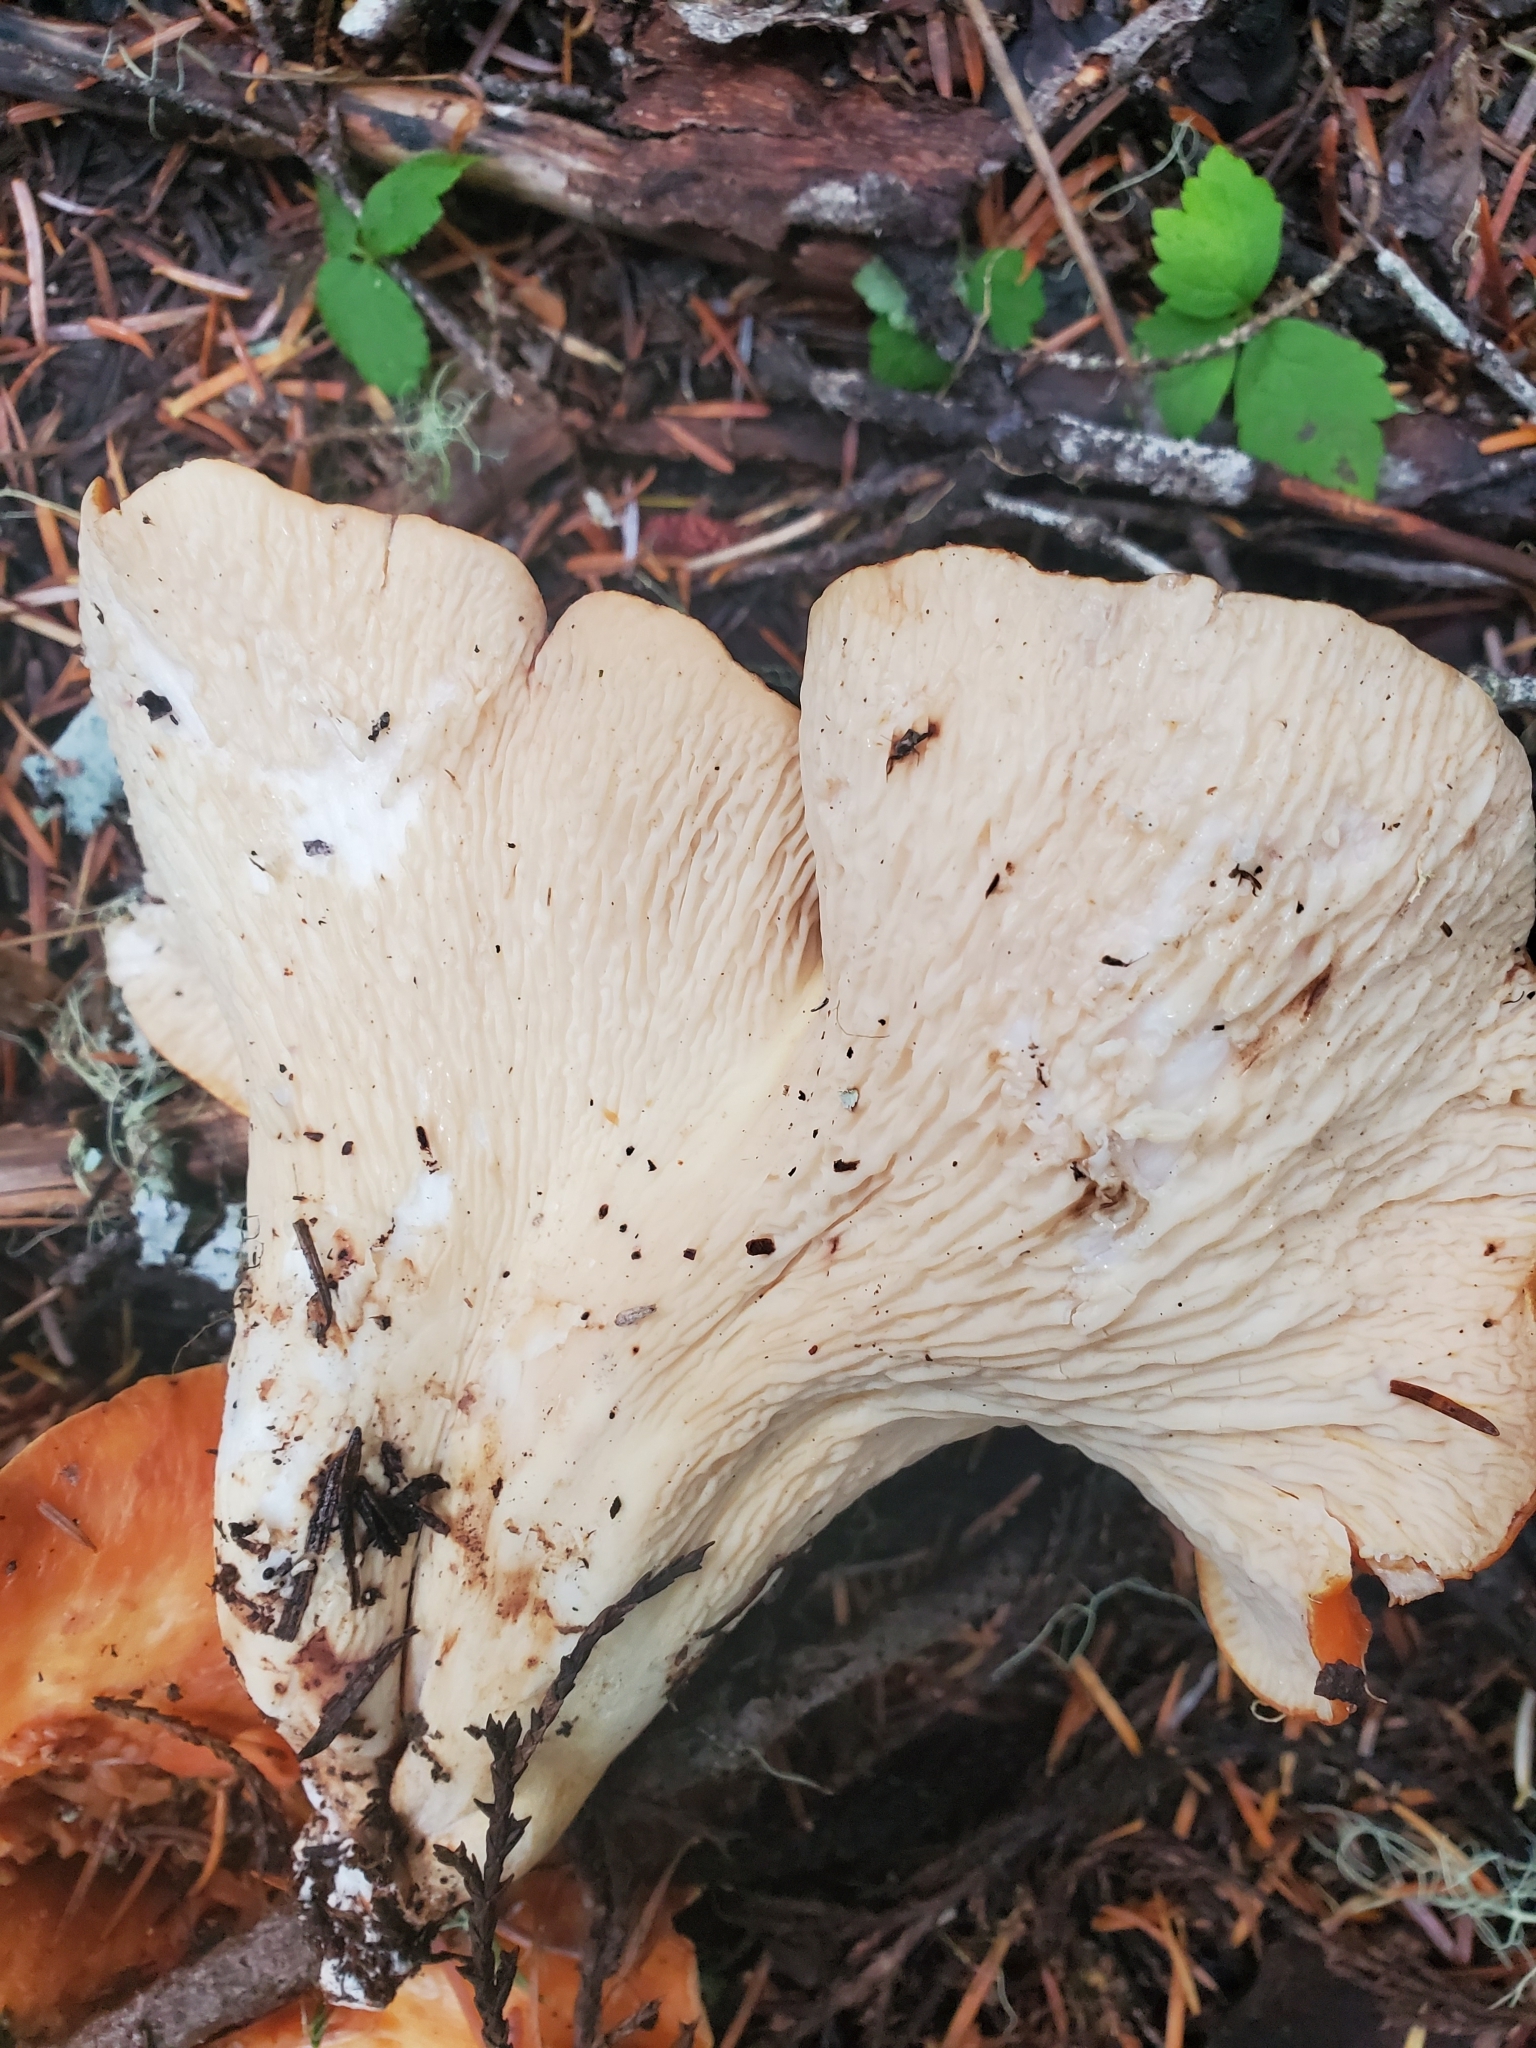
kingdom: Fungi
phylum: Basidiomycota
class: Agaricomycetes
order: Gomphales
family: Gomphaceae
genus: Turbinellus
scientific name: Turbinellus floccosus
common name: Scaly chanterelle
